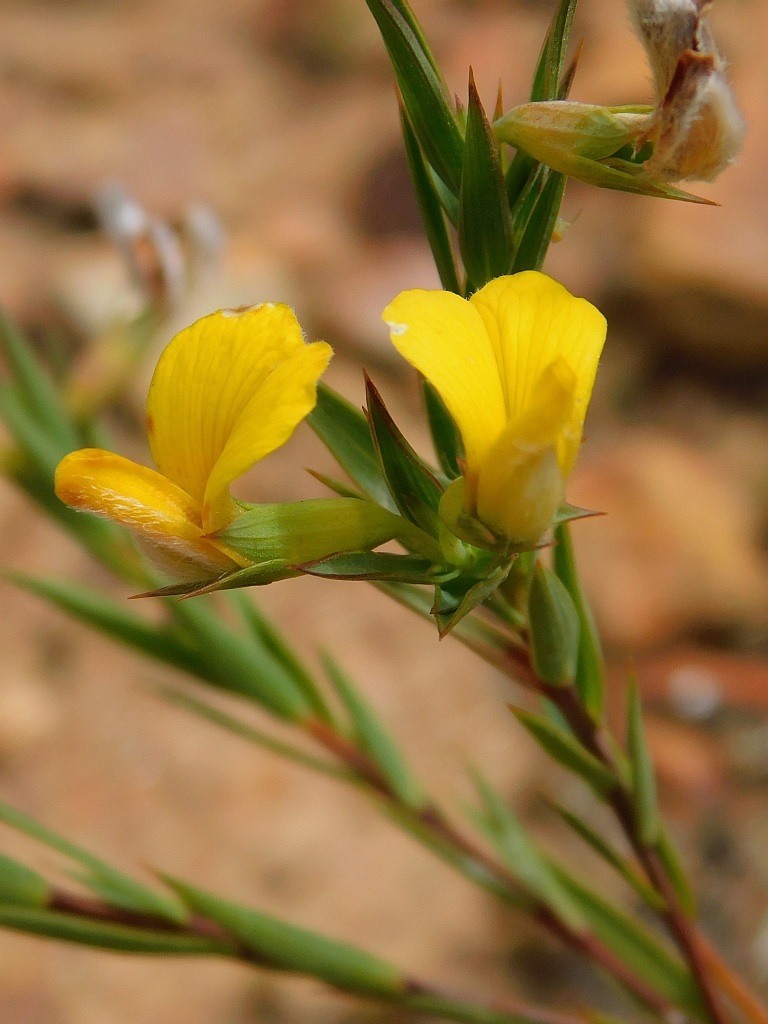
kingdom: Plantae
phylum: Tracheophyta
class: Magnoliopsida
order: Fabales
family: Fabaceae
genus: Aspalathus
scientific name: Aspalathus angustifolia
